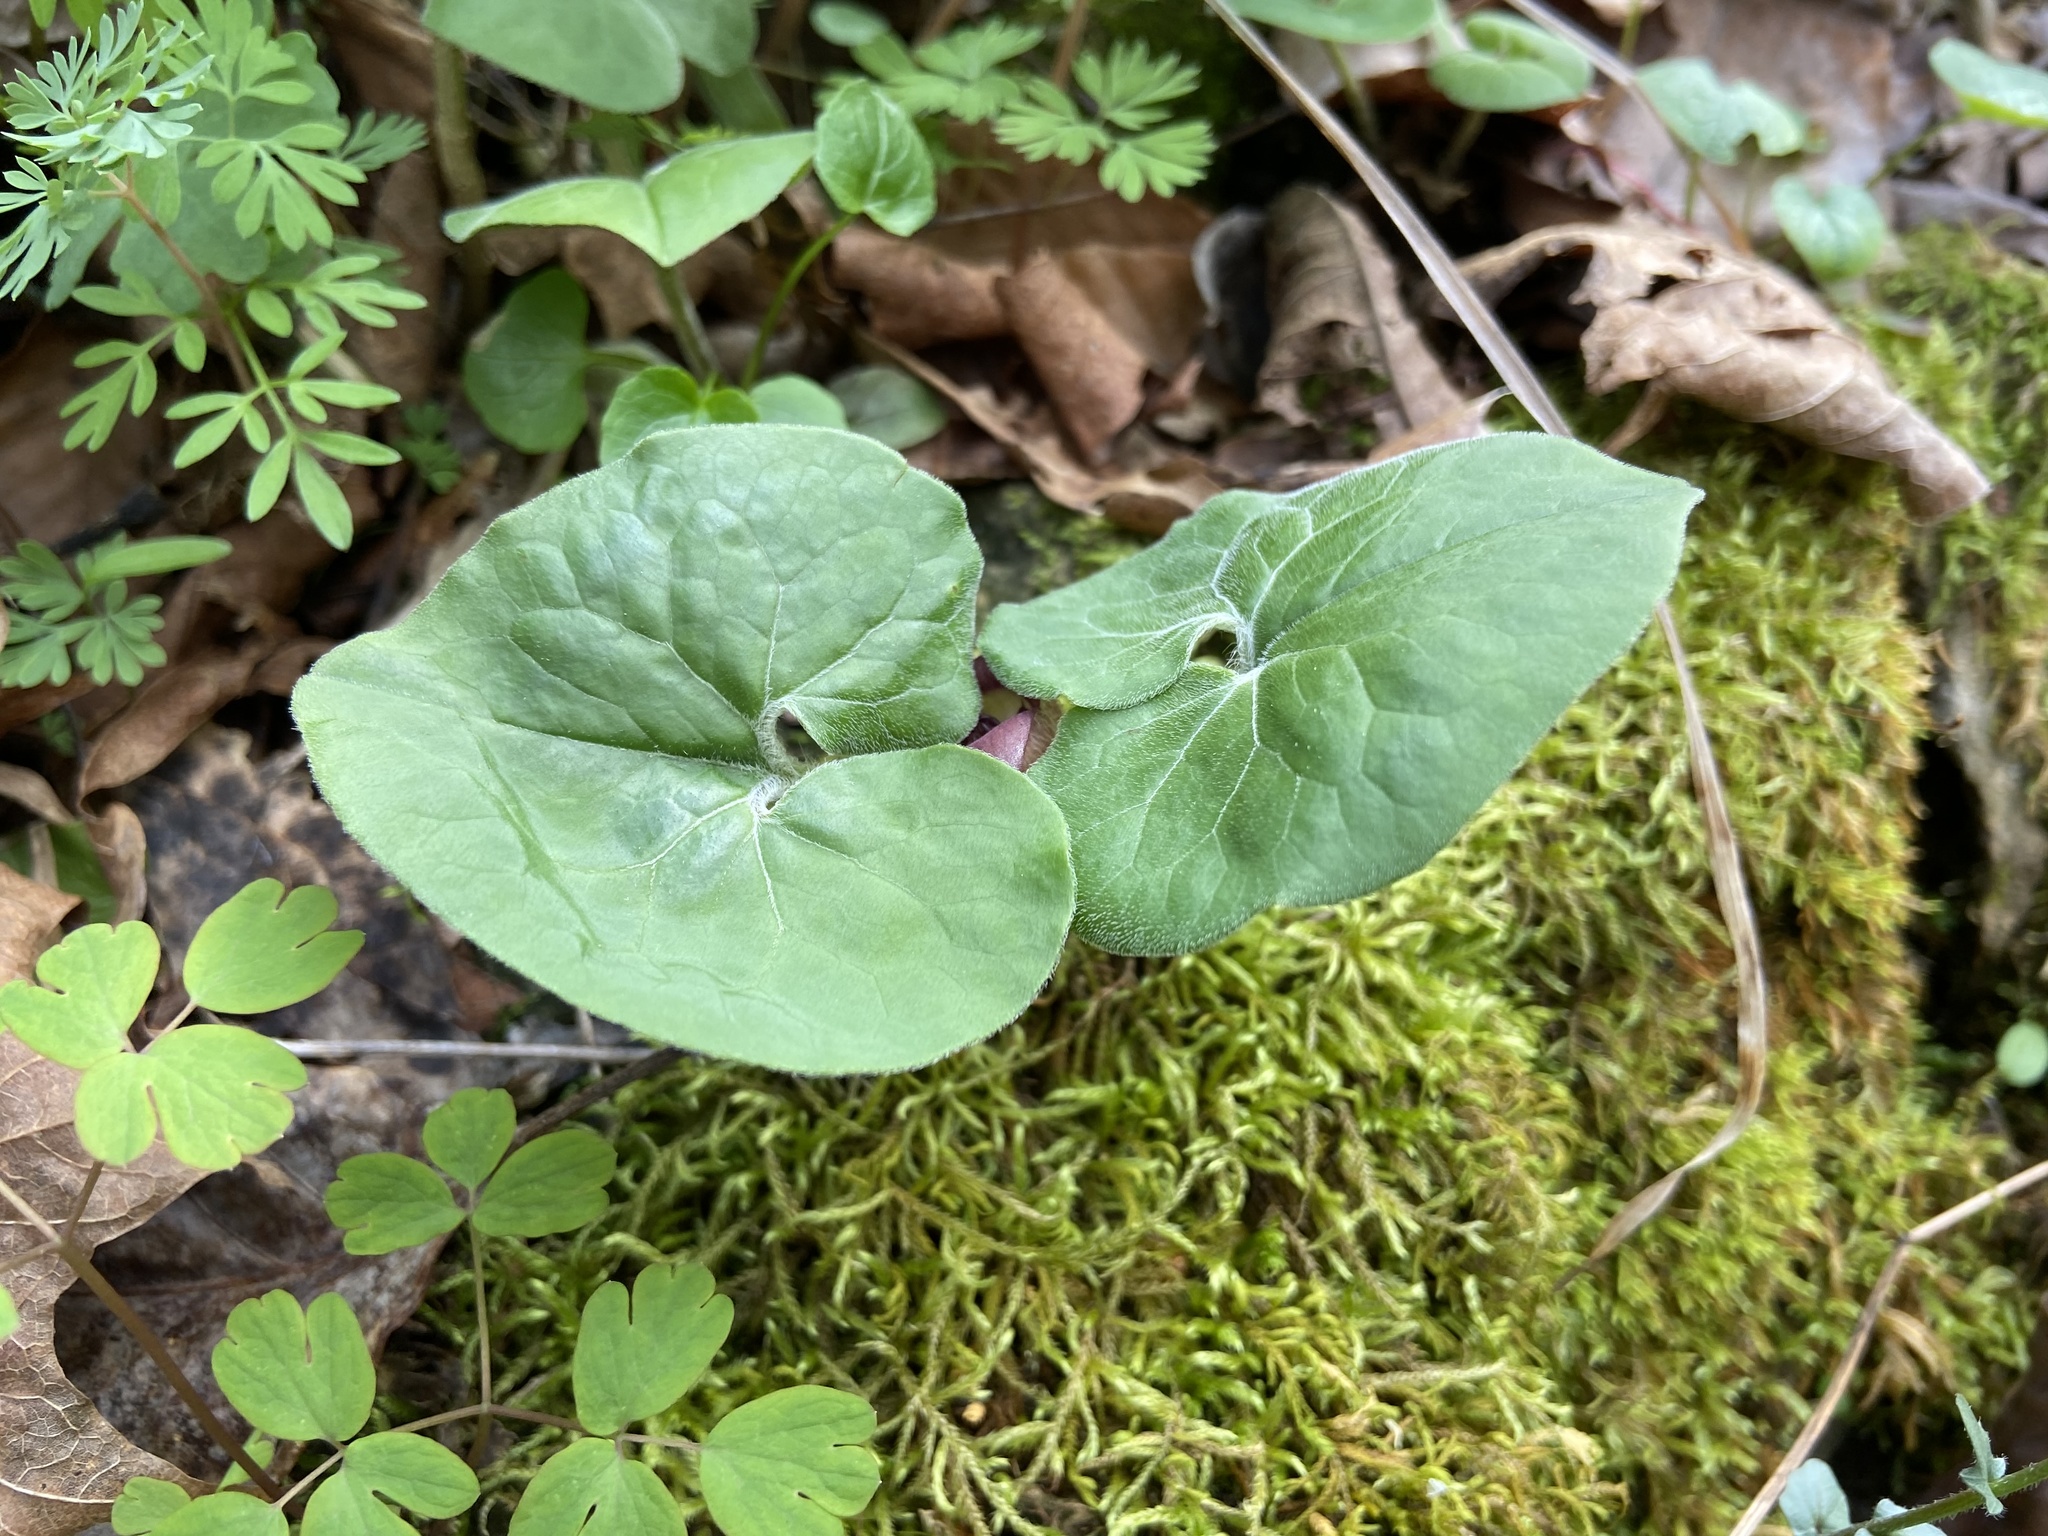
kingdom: Plantae
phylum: Tracheophyta
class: Magnoliopsida
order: Piperales
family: Aristolochiaceae
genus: Asarum
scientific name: Asarum canadense
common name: Wild ginger
